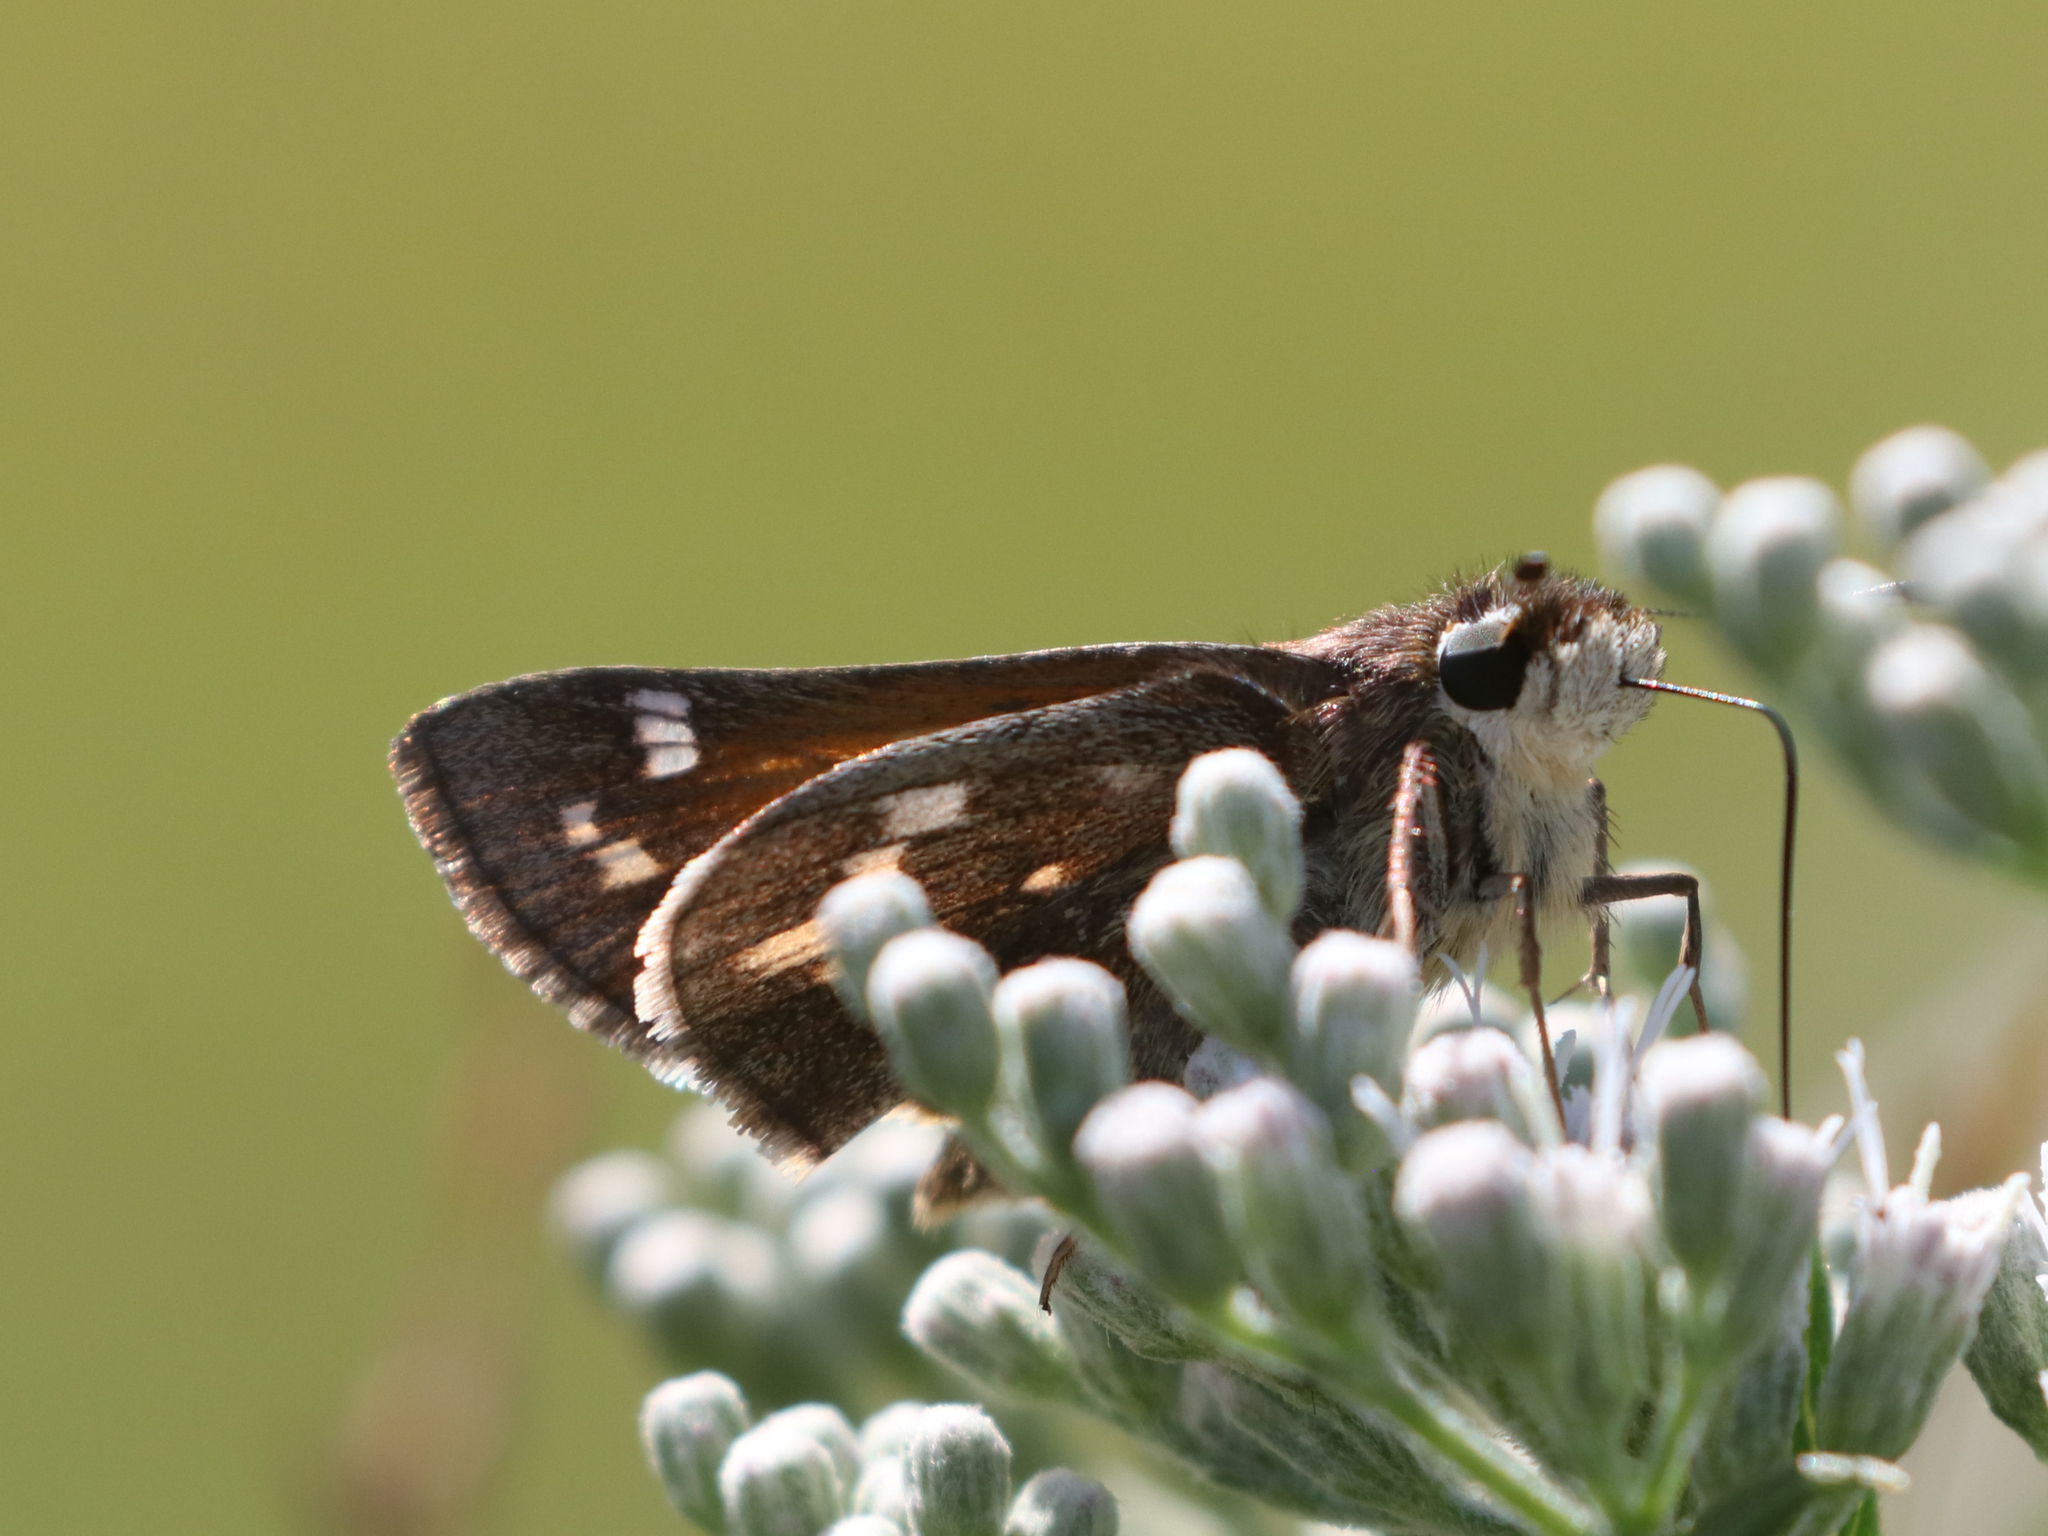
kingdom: Animalia
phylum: Arthropoda
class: Insecta
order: Lepidoptera
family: Hesperiidae
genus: Atalopedes
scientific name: Atalopedes
